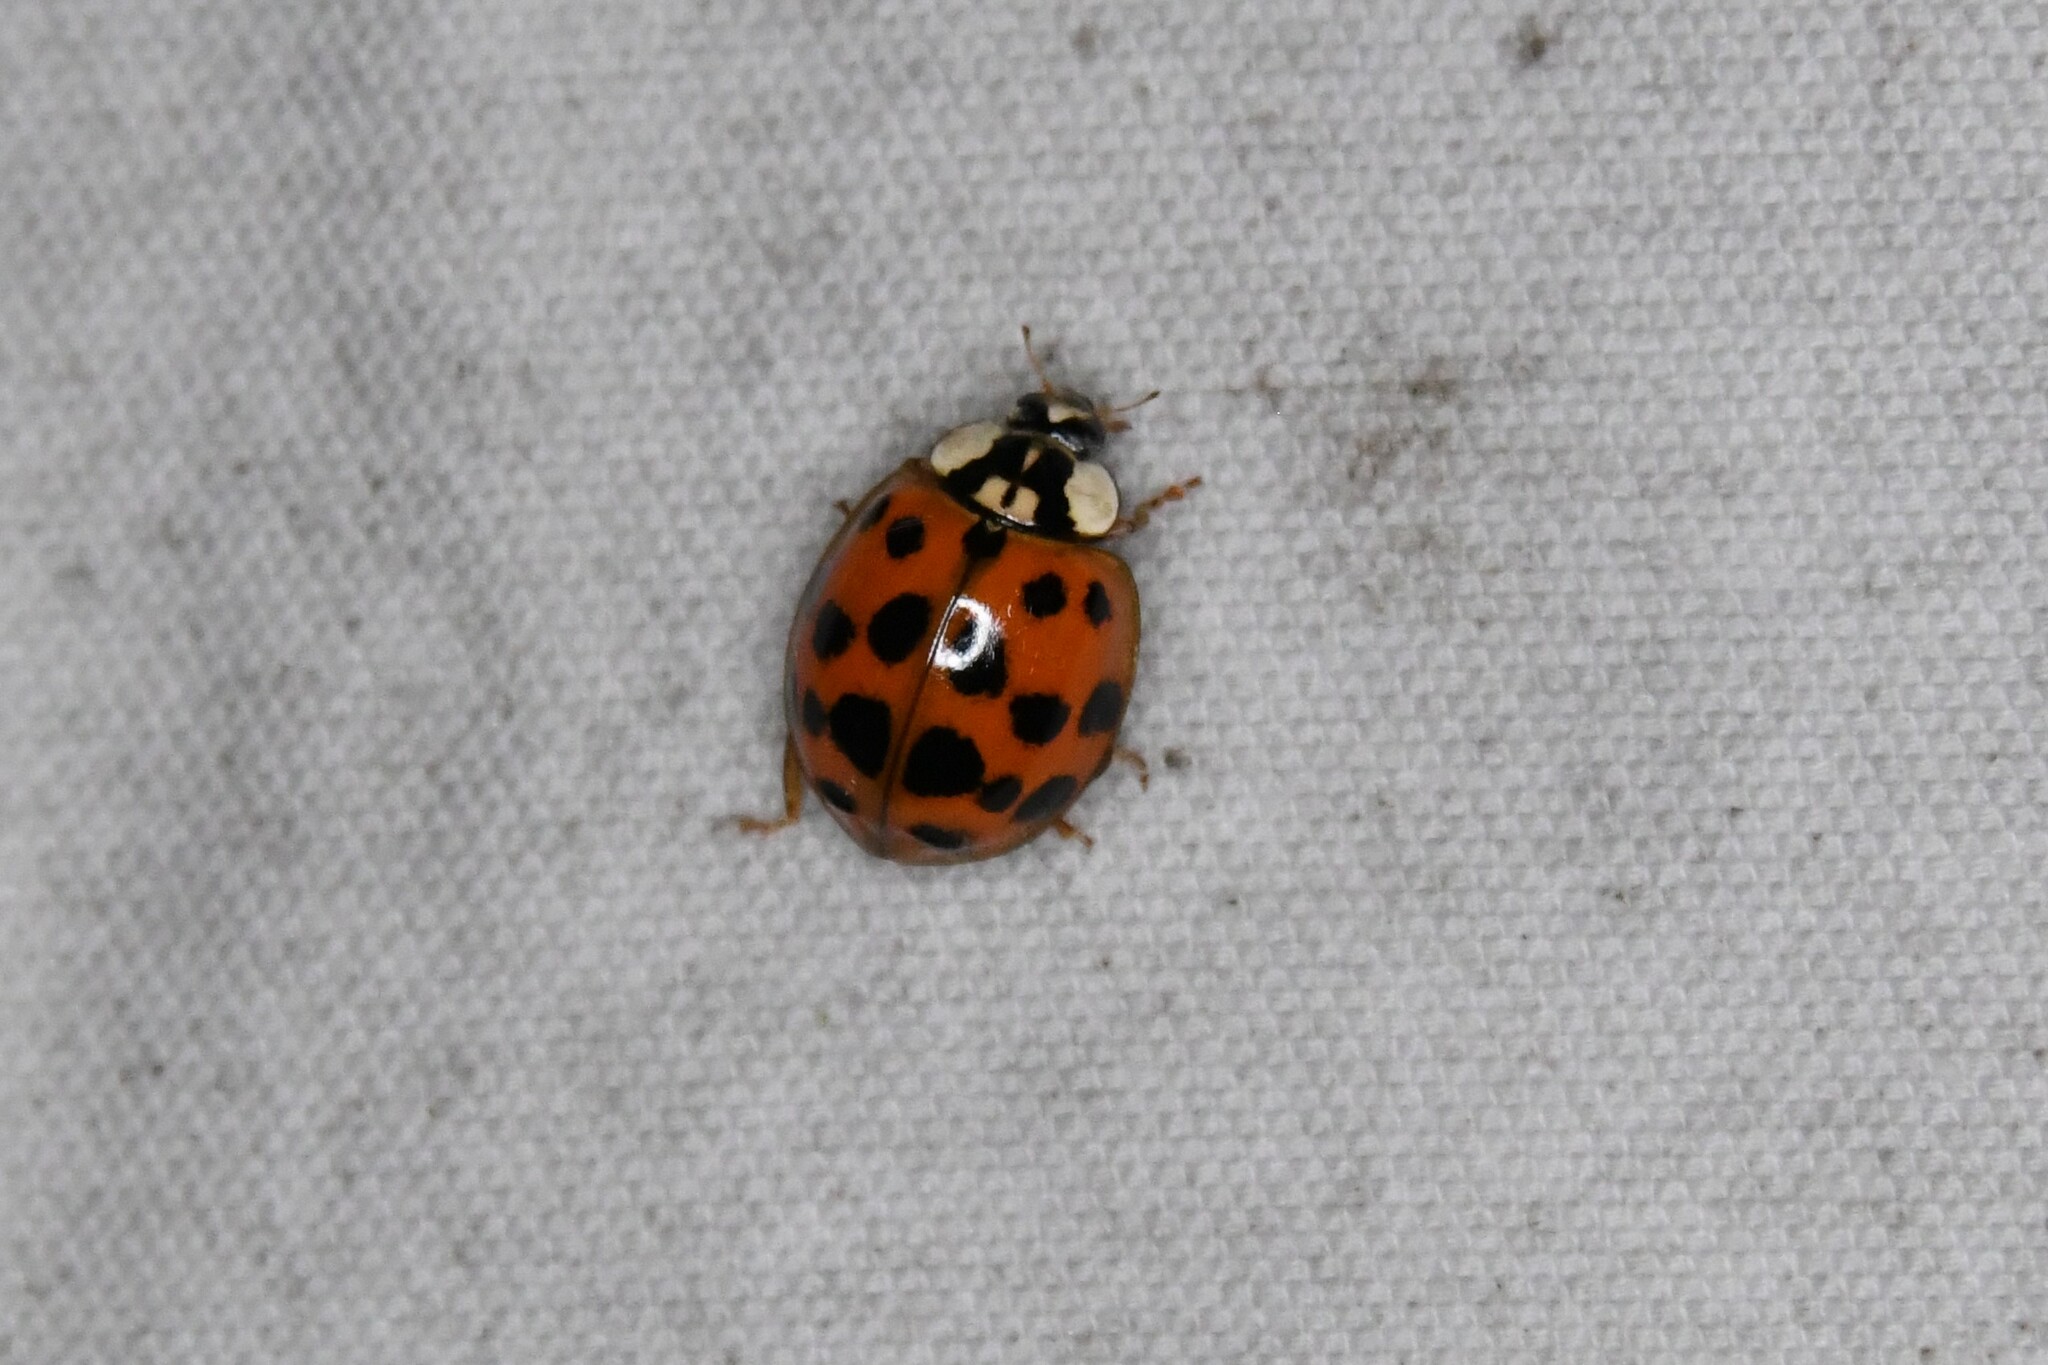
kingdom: Animalia
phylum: Arthropoda
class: Insecta
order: Coleoptera
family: Coccinellidae
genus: Harmonia
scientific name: Harmonia axyridis
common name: Harlequin ladybird
